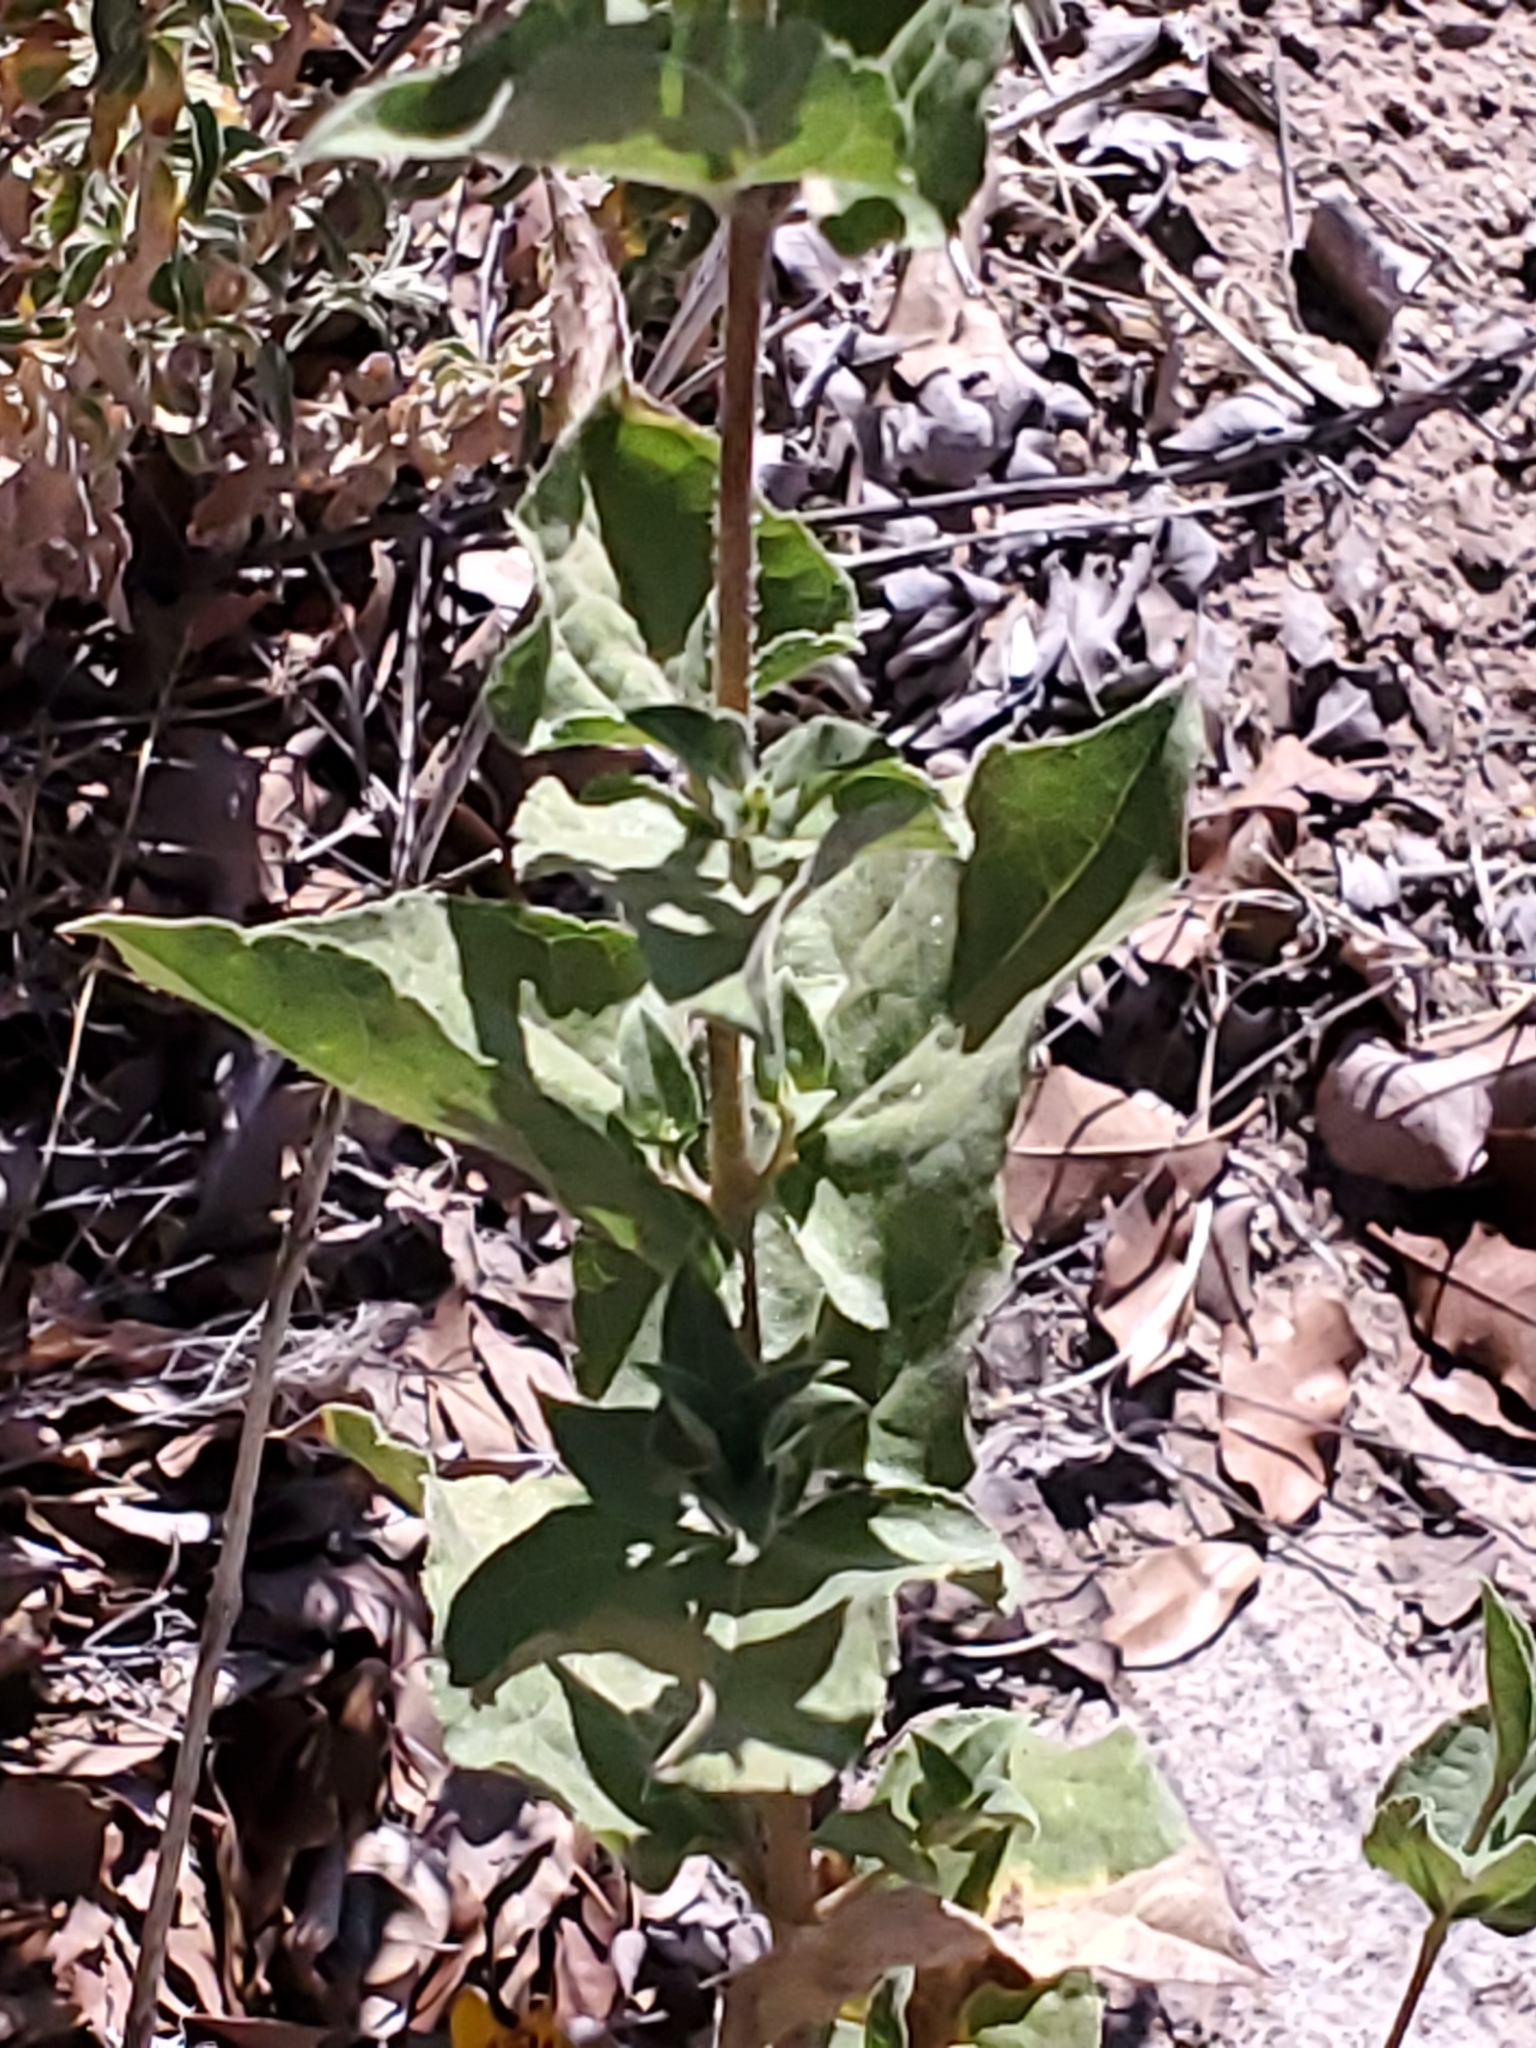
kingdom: Plantae
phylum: Tracheophyta
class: Magnoliopsida
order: Asterales
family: Asteraceae
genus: Aldama
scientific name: Aldama cordifolia
